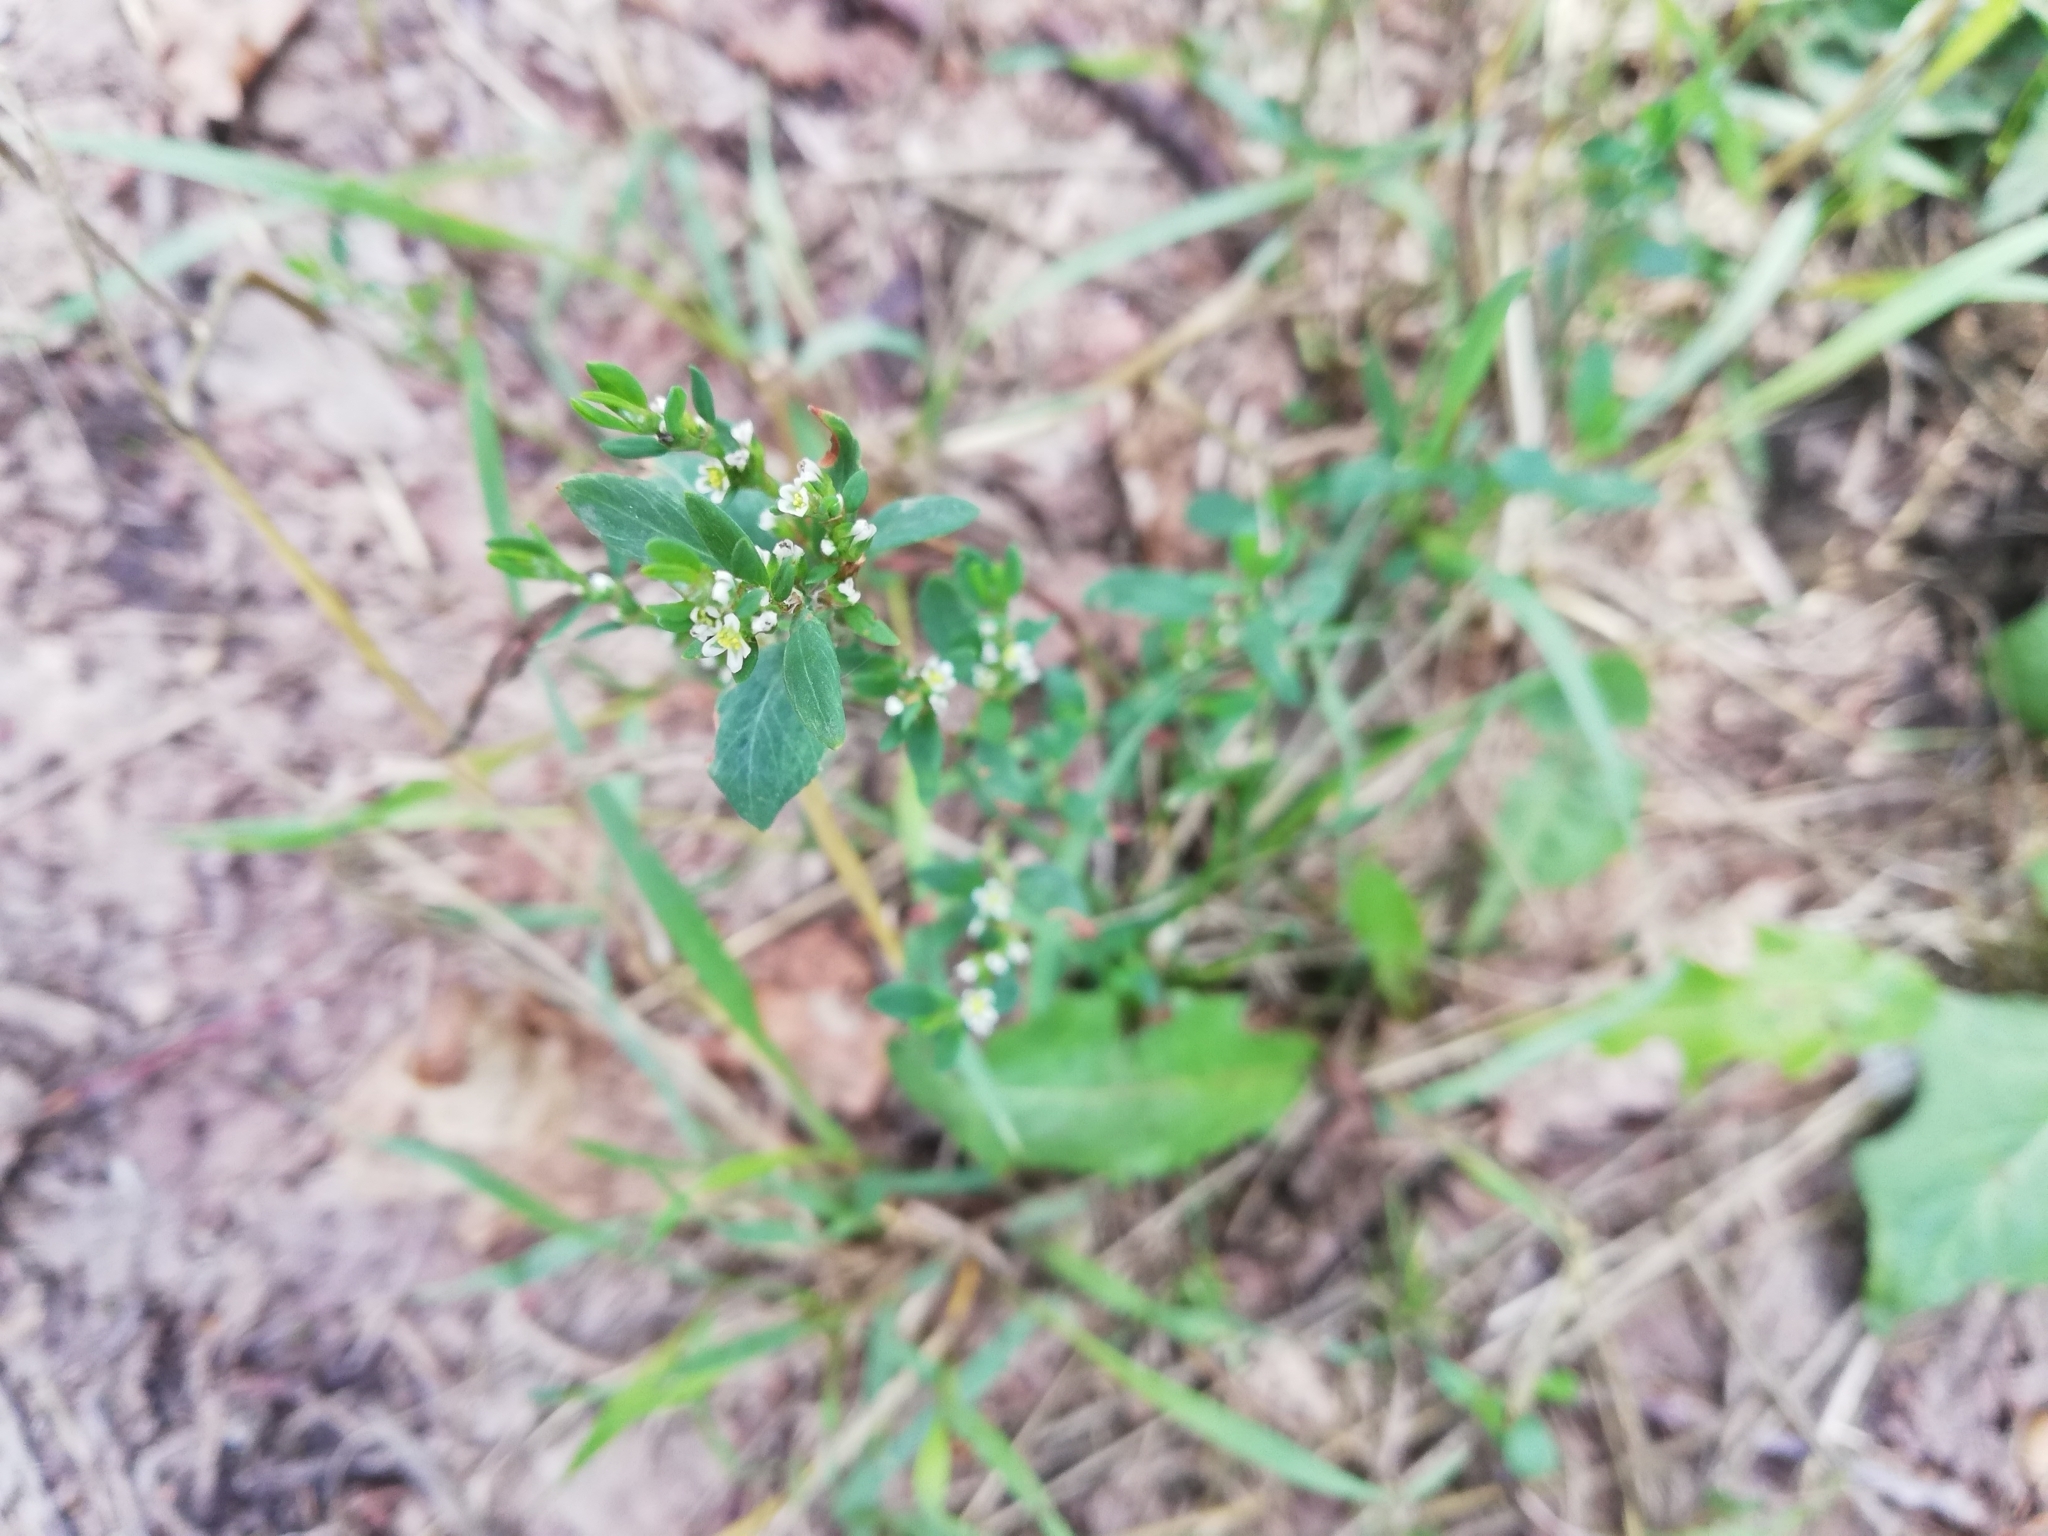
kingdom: Plantae
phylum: Tracheophyta
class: Magnoliopsida
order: Caryophyllales
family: Polygonaceae
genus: Polygonum
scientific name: Polygonum
